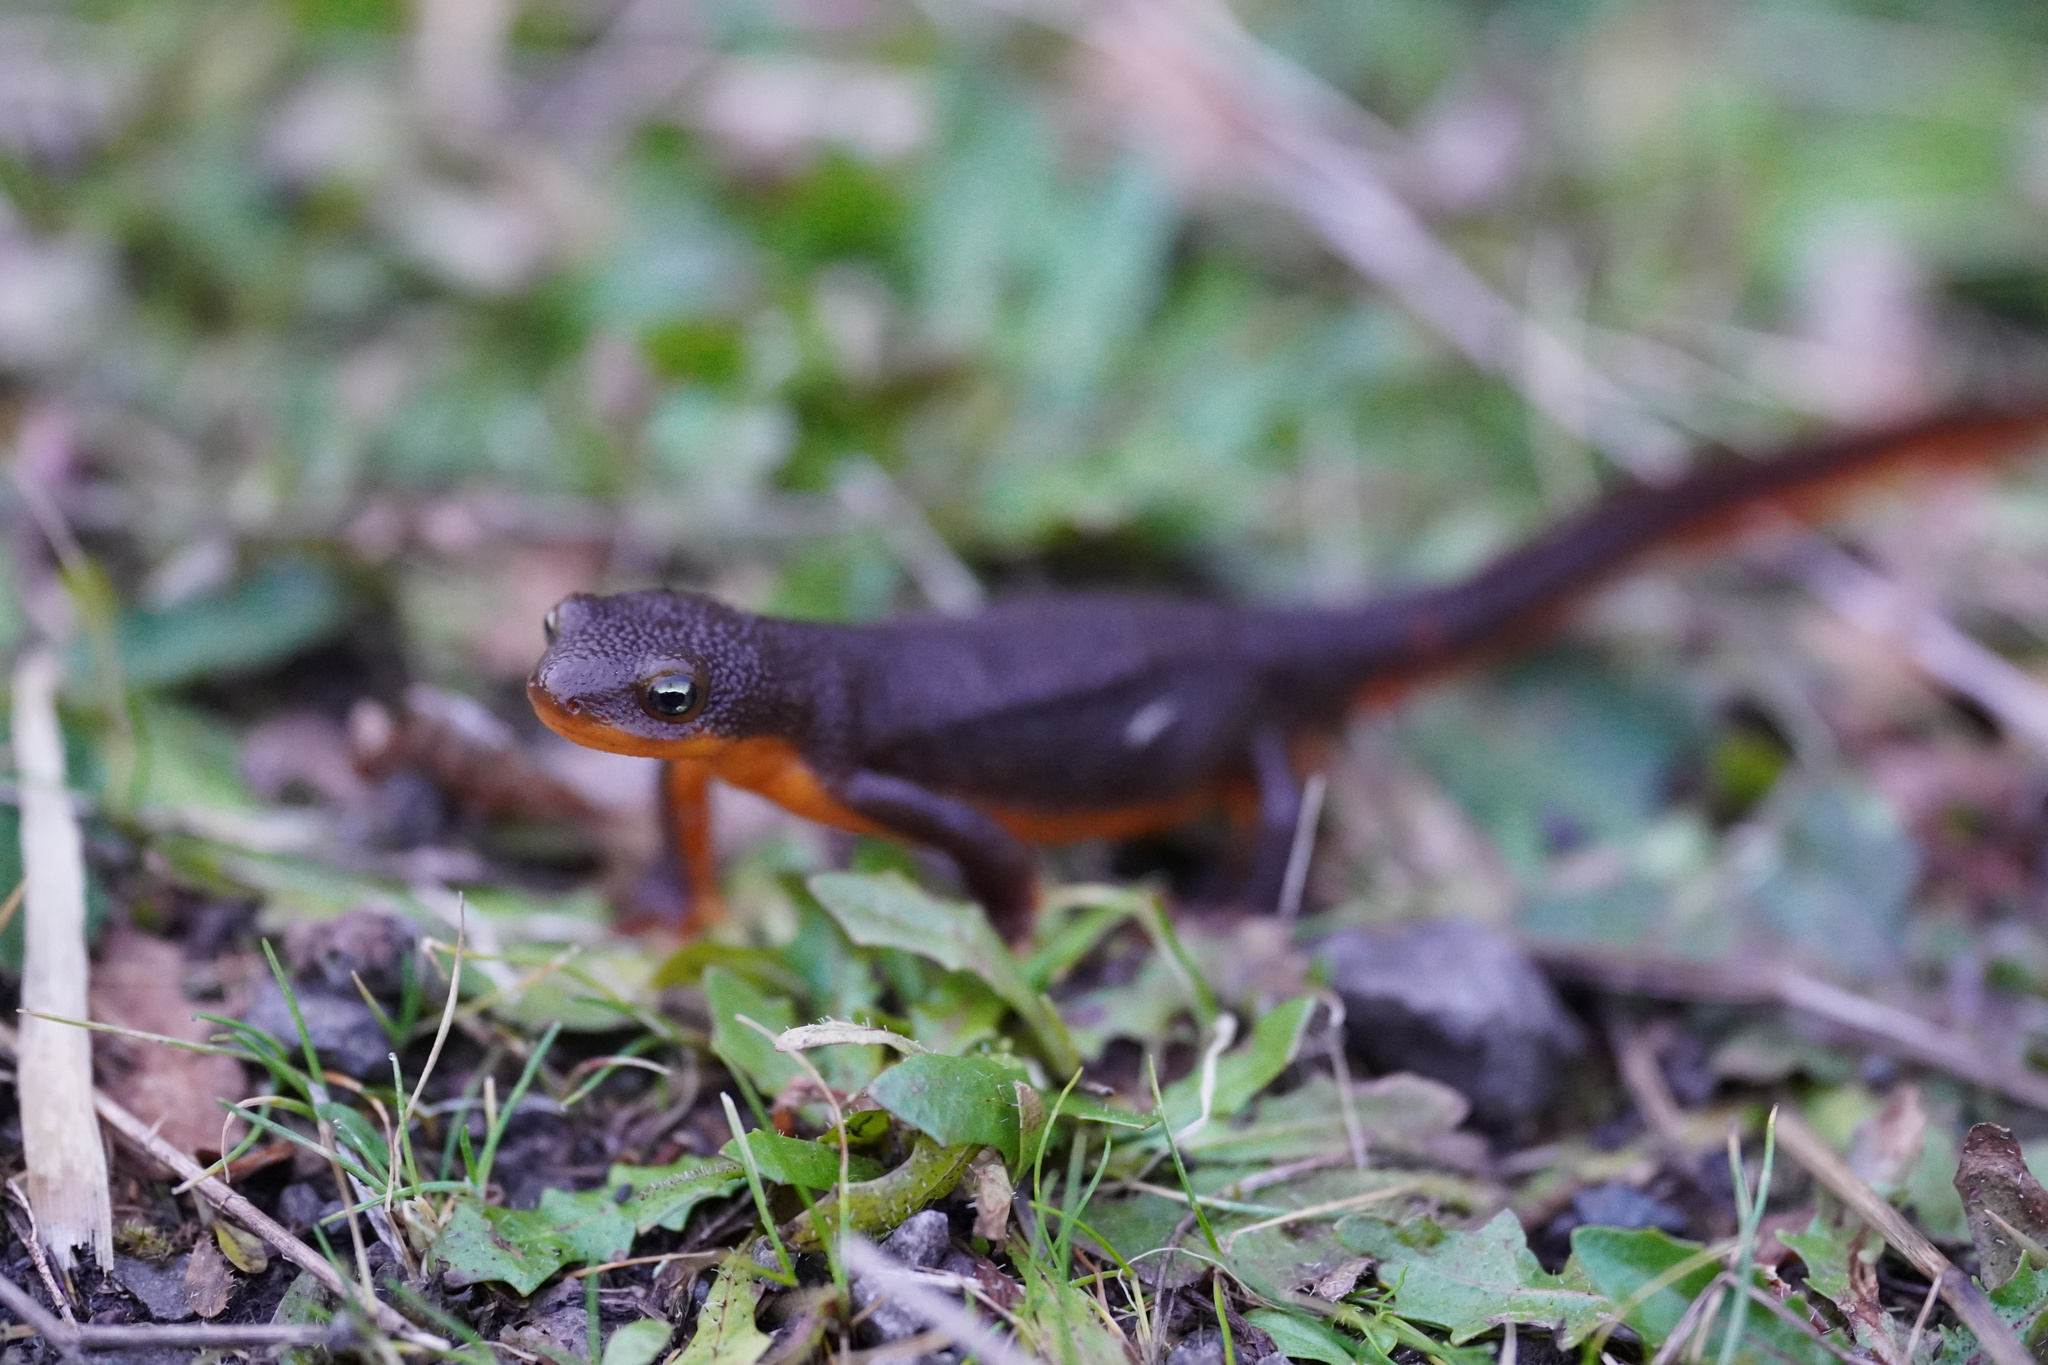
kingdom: Animalia
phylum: Chordata
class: Amphibia
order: Caudata
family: Salamandridae
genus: Taricha
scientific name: Taricha granulosa
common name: Roughskin newt
